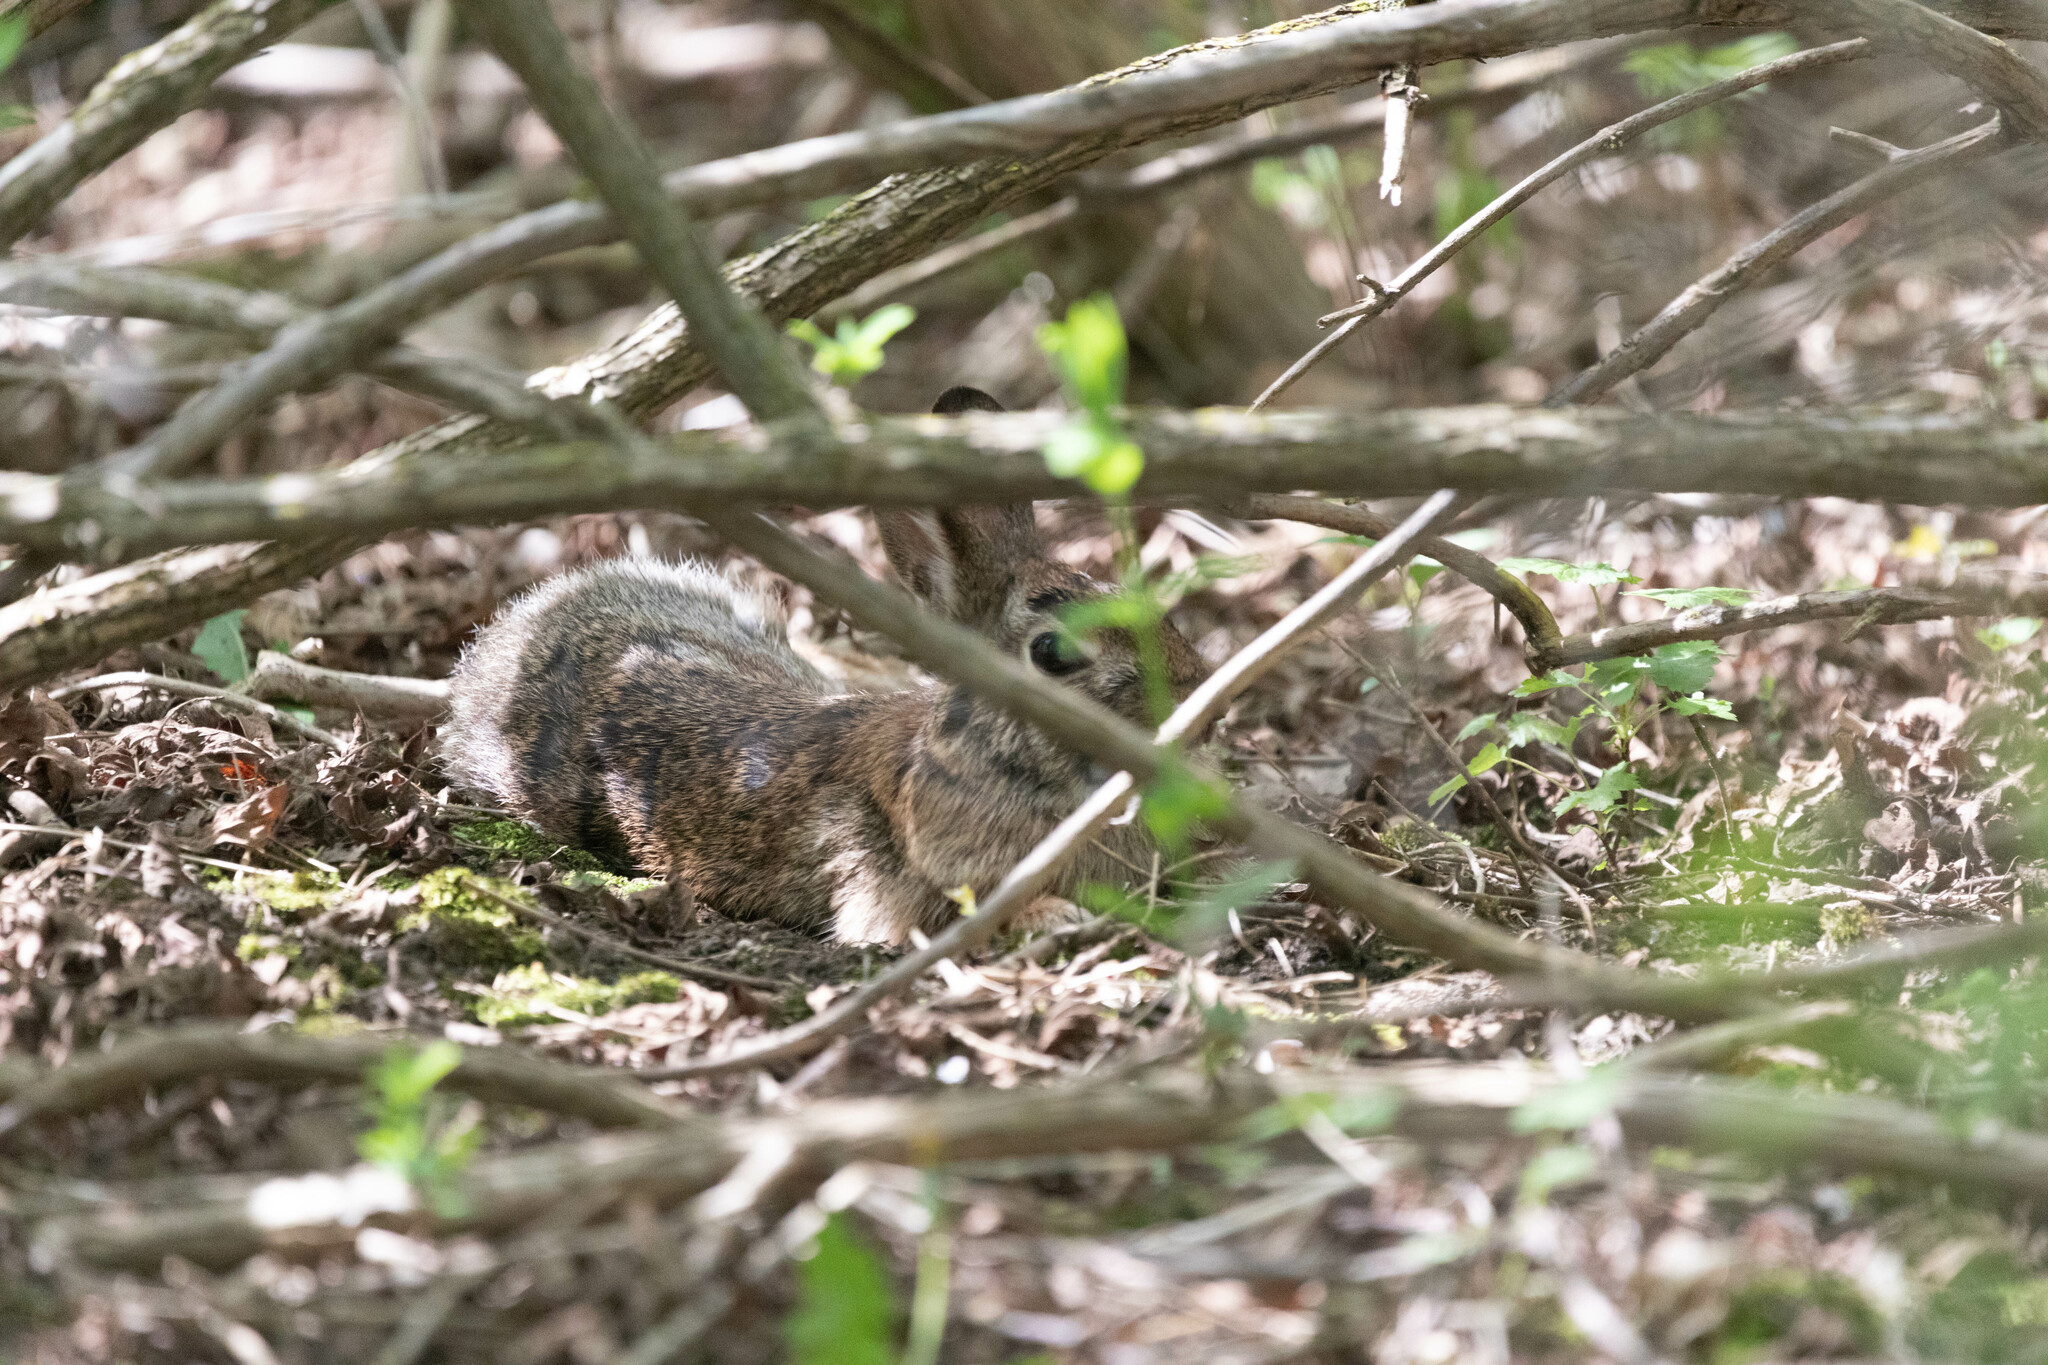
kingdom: Animalia
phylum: Chordata
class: Mammalia
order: Lagomorpha
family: Leporidae
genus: Sylvilagus
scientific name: Sylvilagus floridanus
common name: Eastern cottontail
